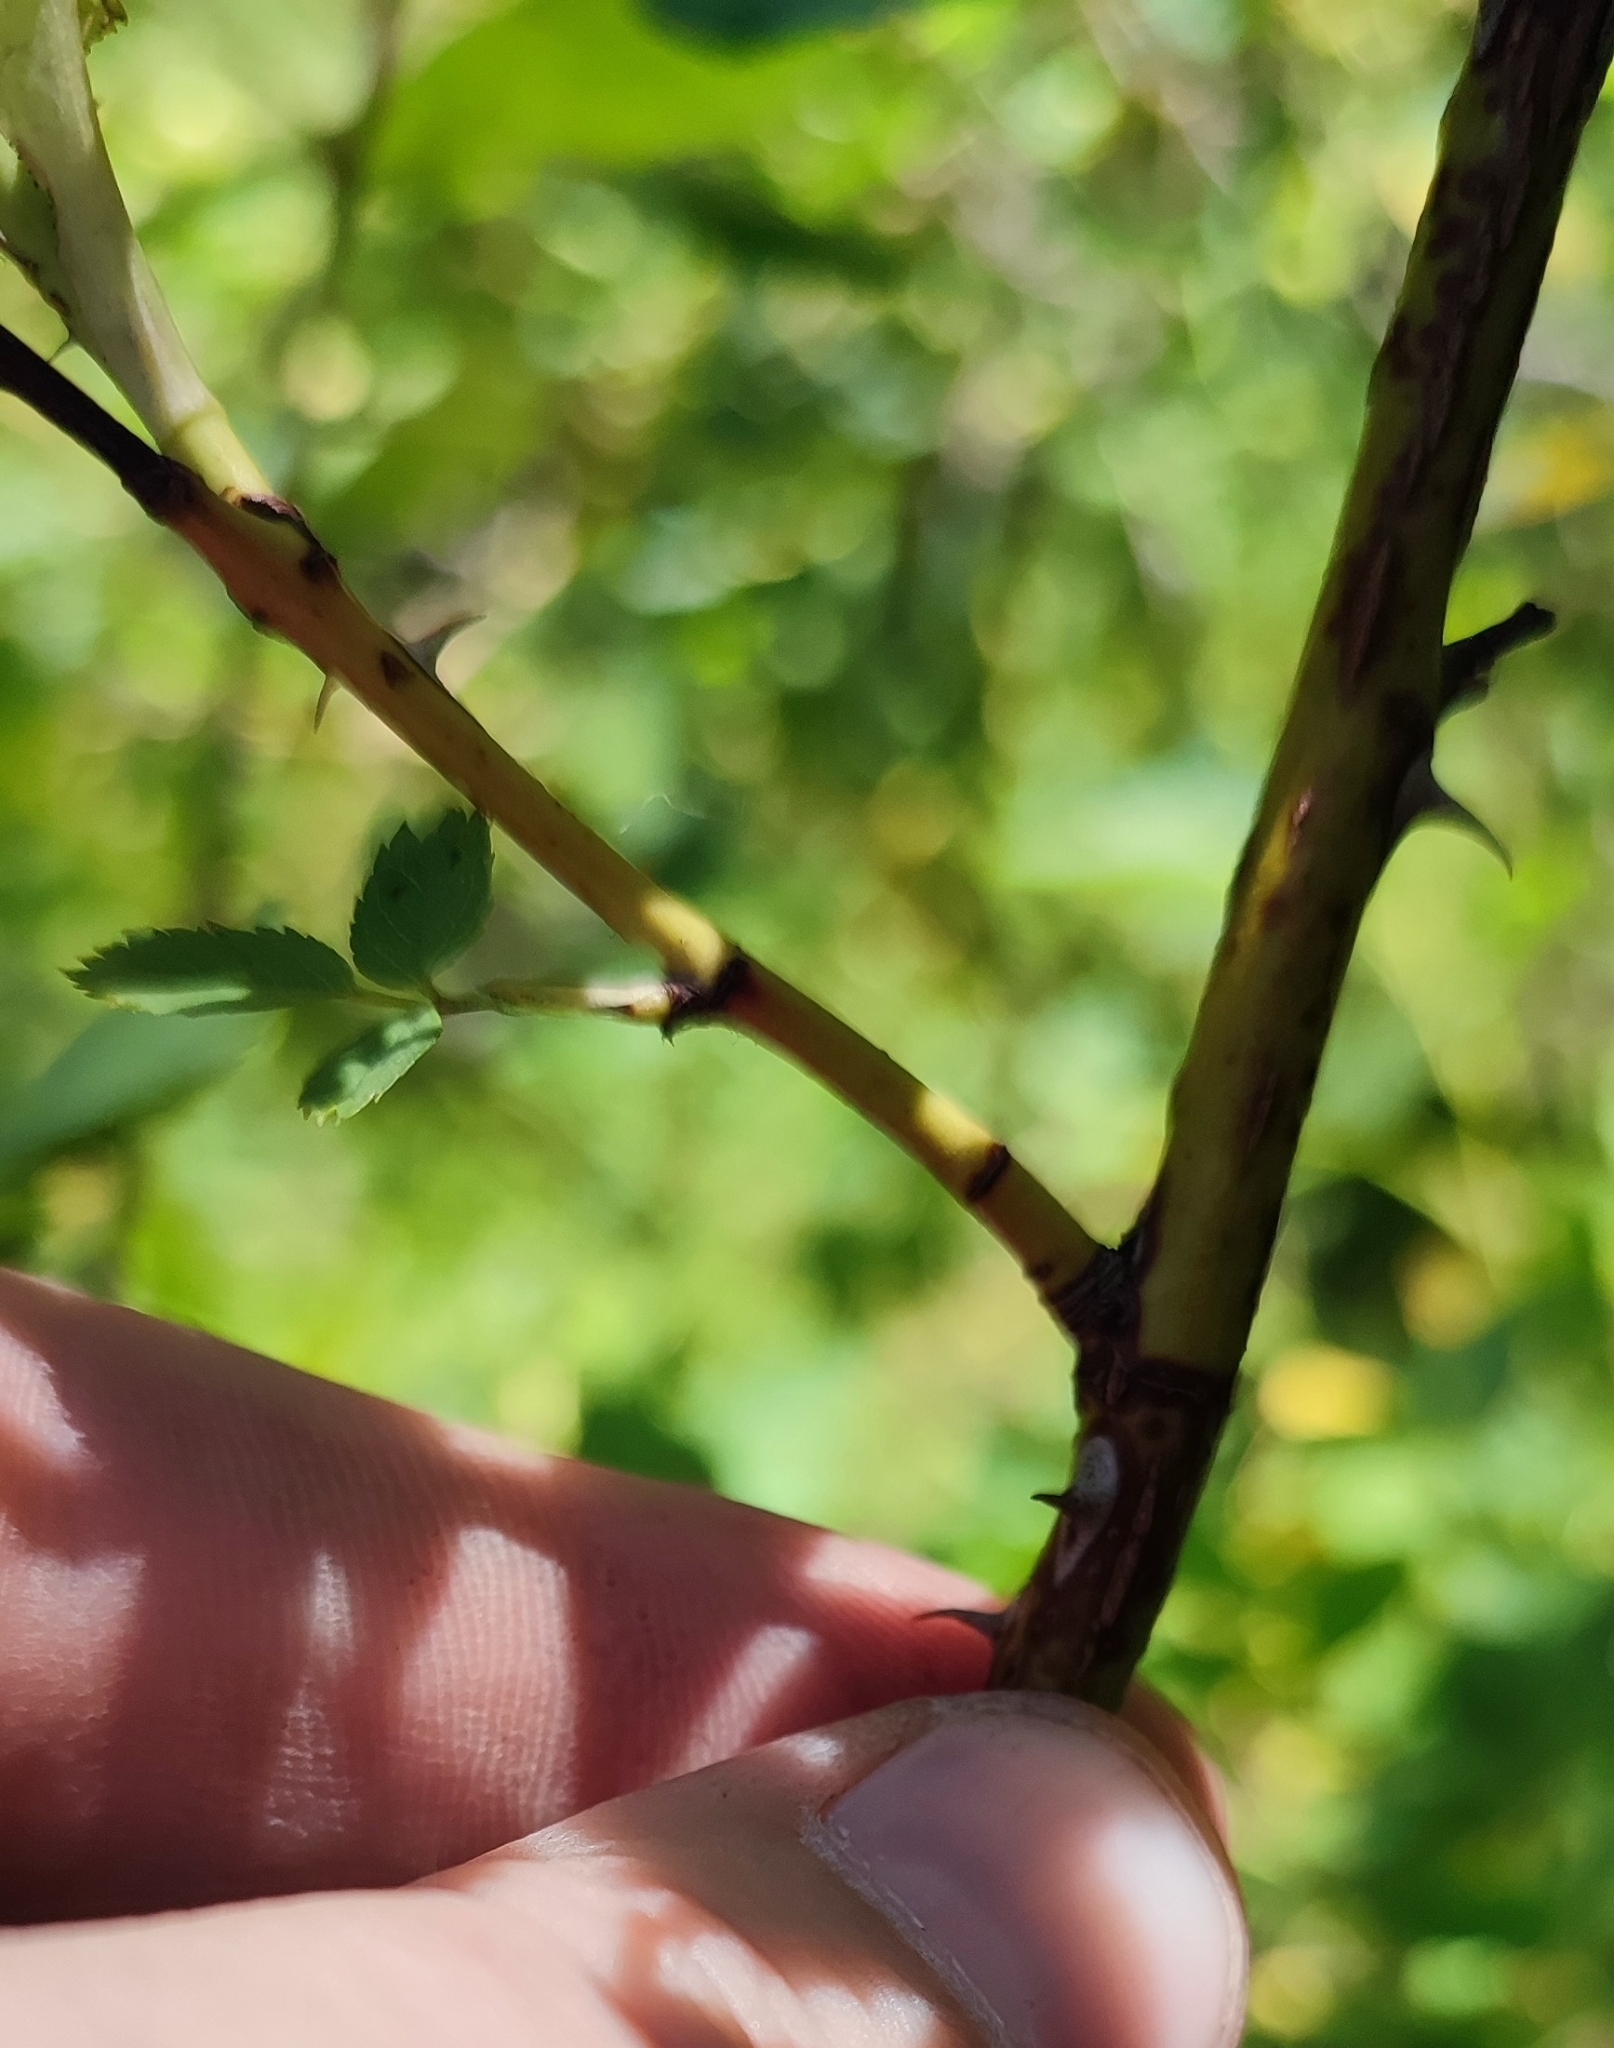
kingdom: Plantae
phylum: Tracheophyta
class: Magnoliopsida
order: Rosales
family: Rosaceae
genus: Rosa
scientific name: Rosa glabrifolia
